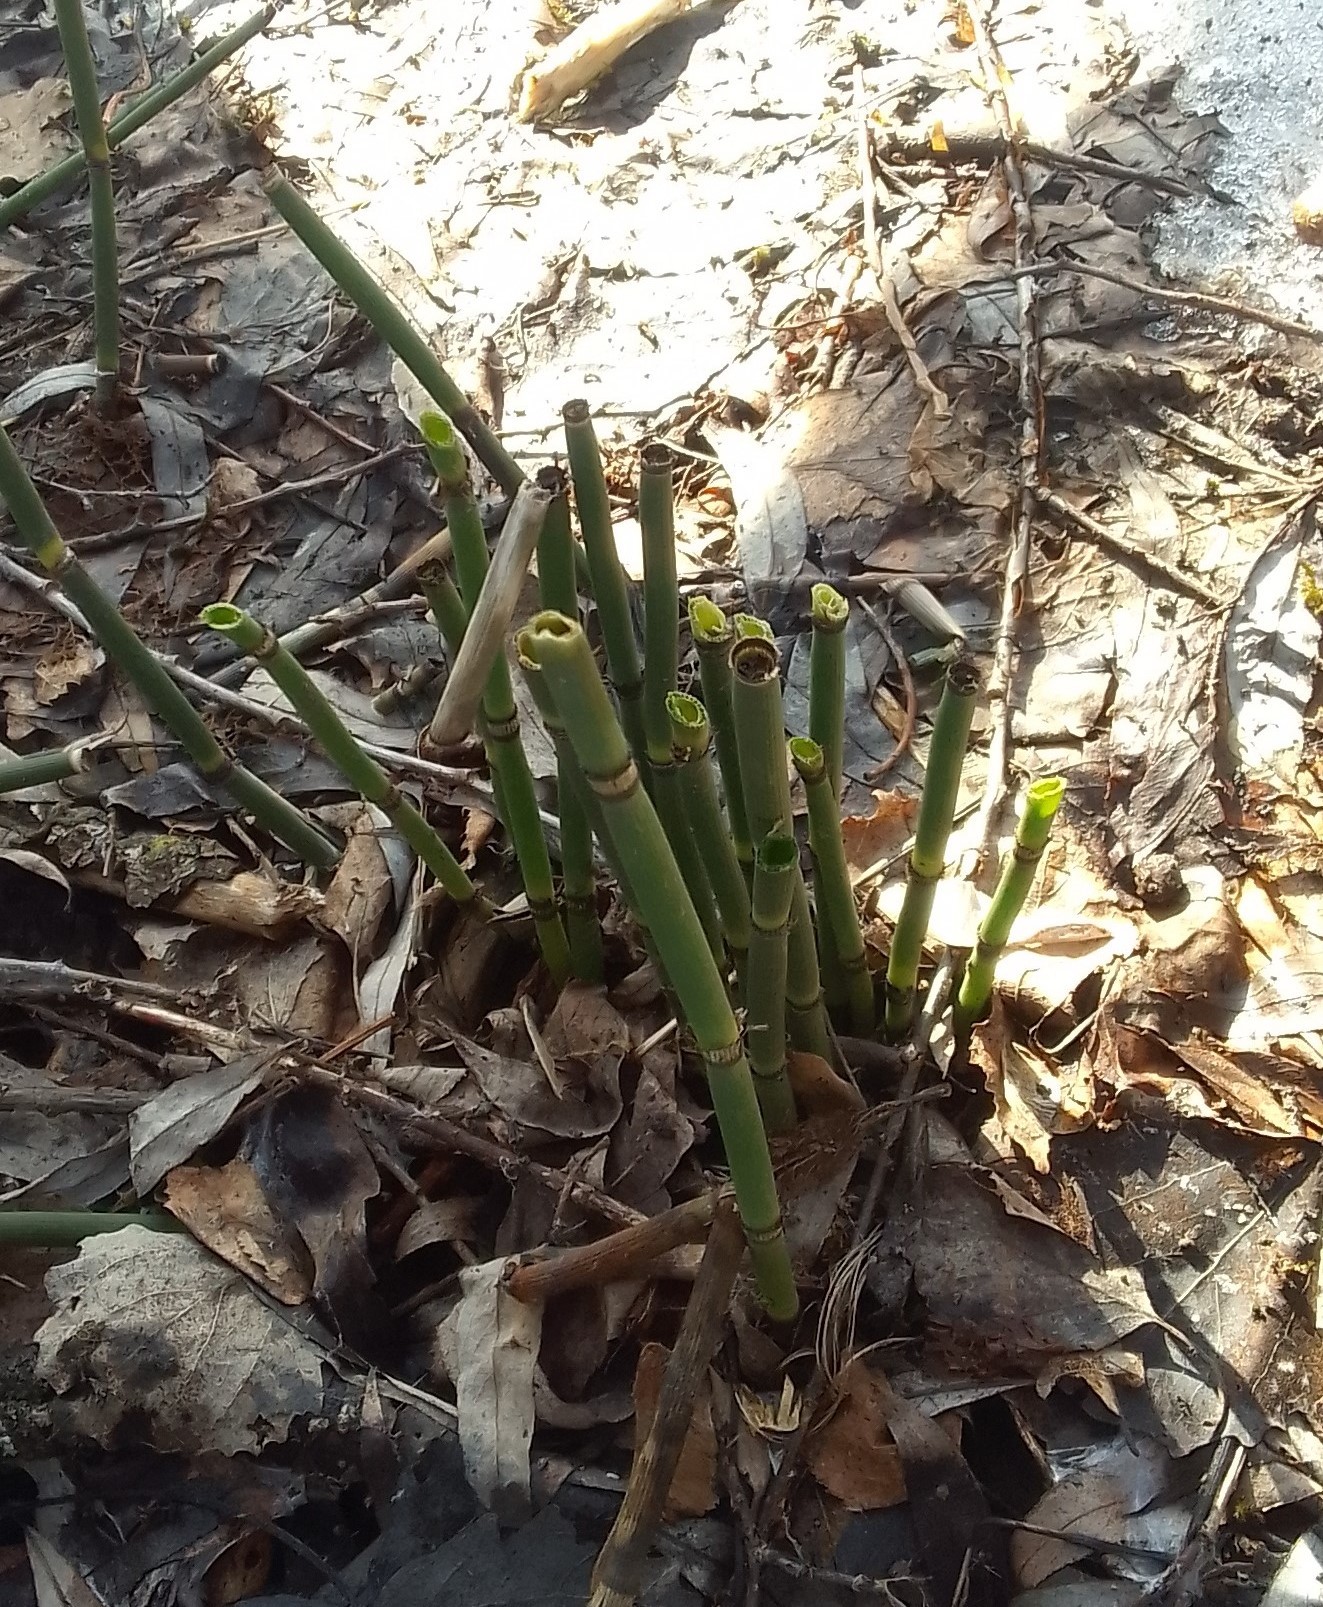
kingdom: Plantae
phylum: Tracheophyta
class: Polypodiopsida
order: Equisetales
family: Equisetaceae
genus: Equisetum
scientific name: Equisetum hyemale
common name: Rough horsetail
